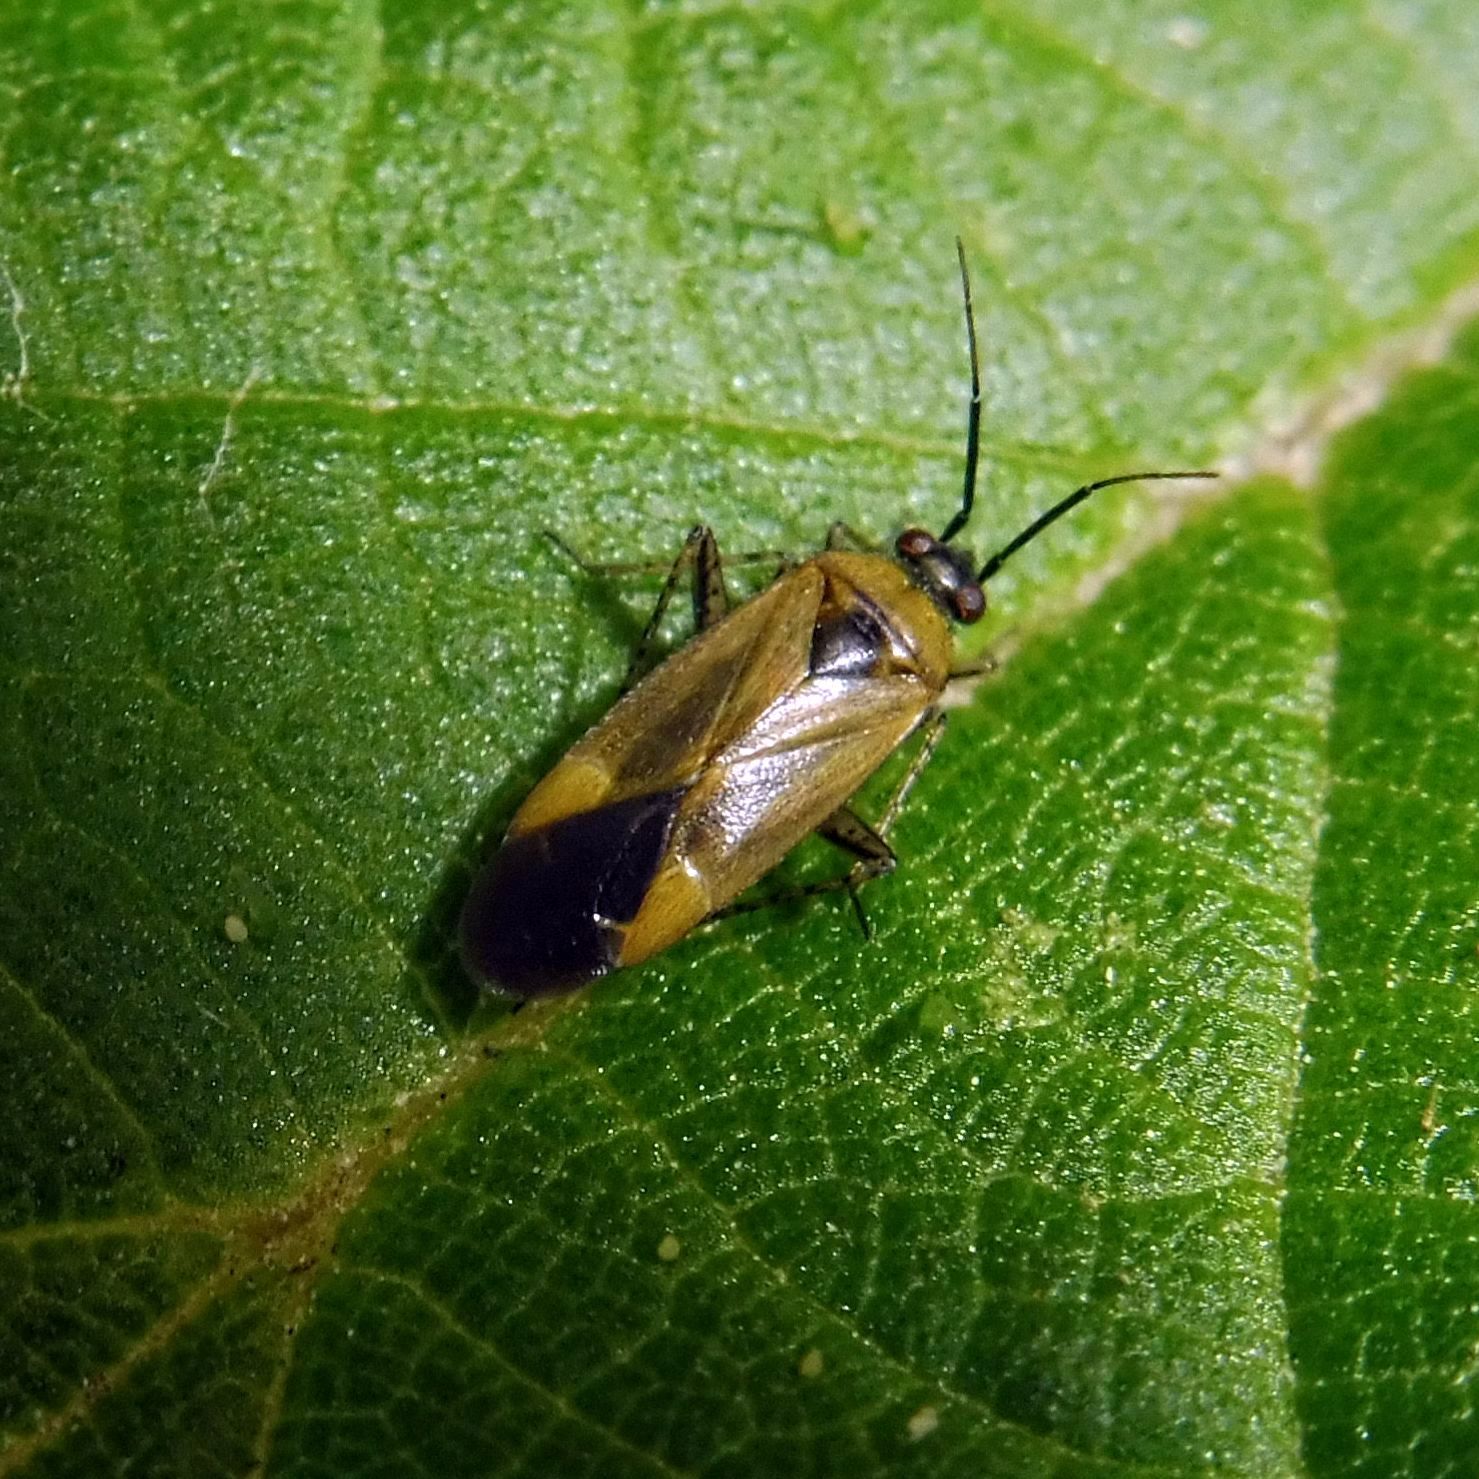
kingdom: Animalia
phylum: Arthropoda
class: Insecta
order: Hemiptera
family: Miridae
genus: Plagiognathus
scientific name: Plagiognathus arbustorum
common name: Plant bug
